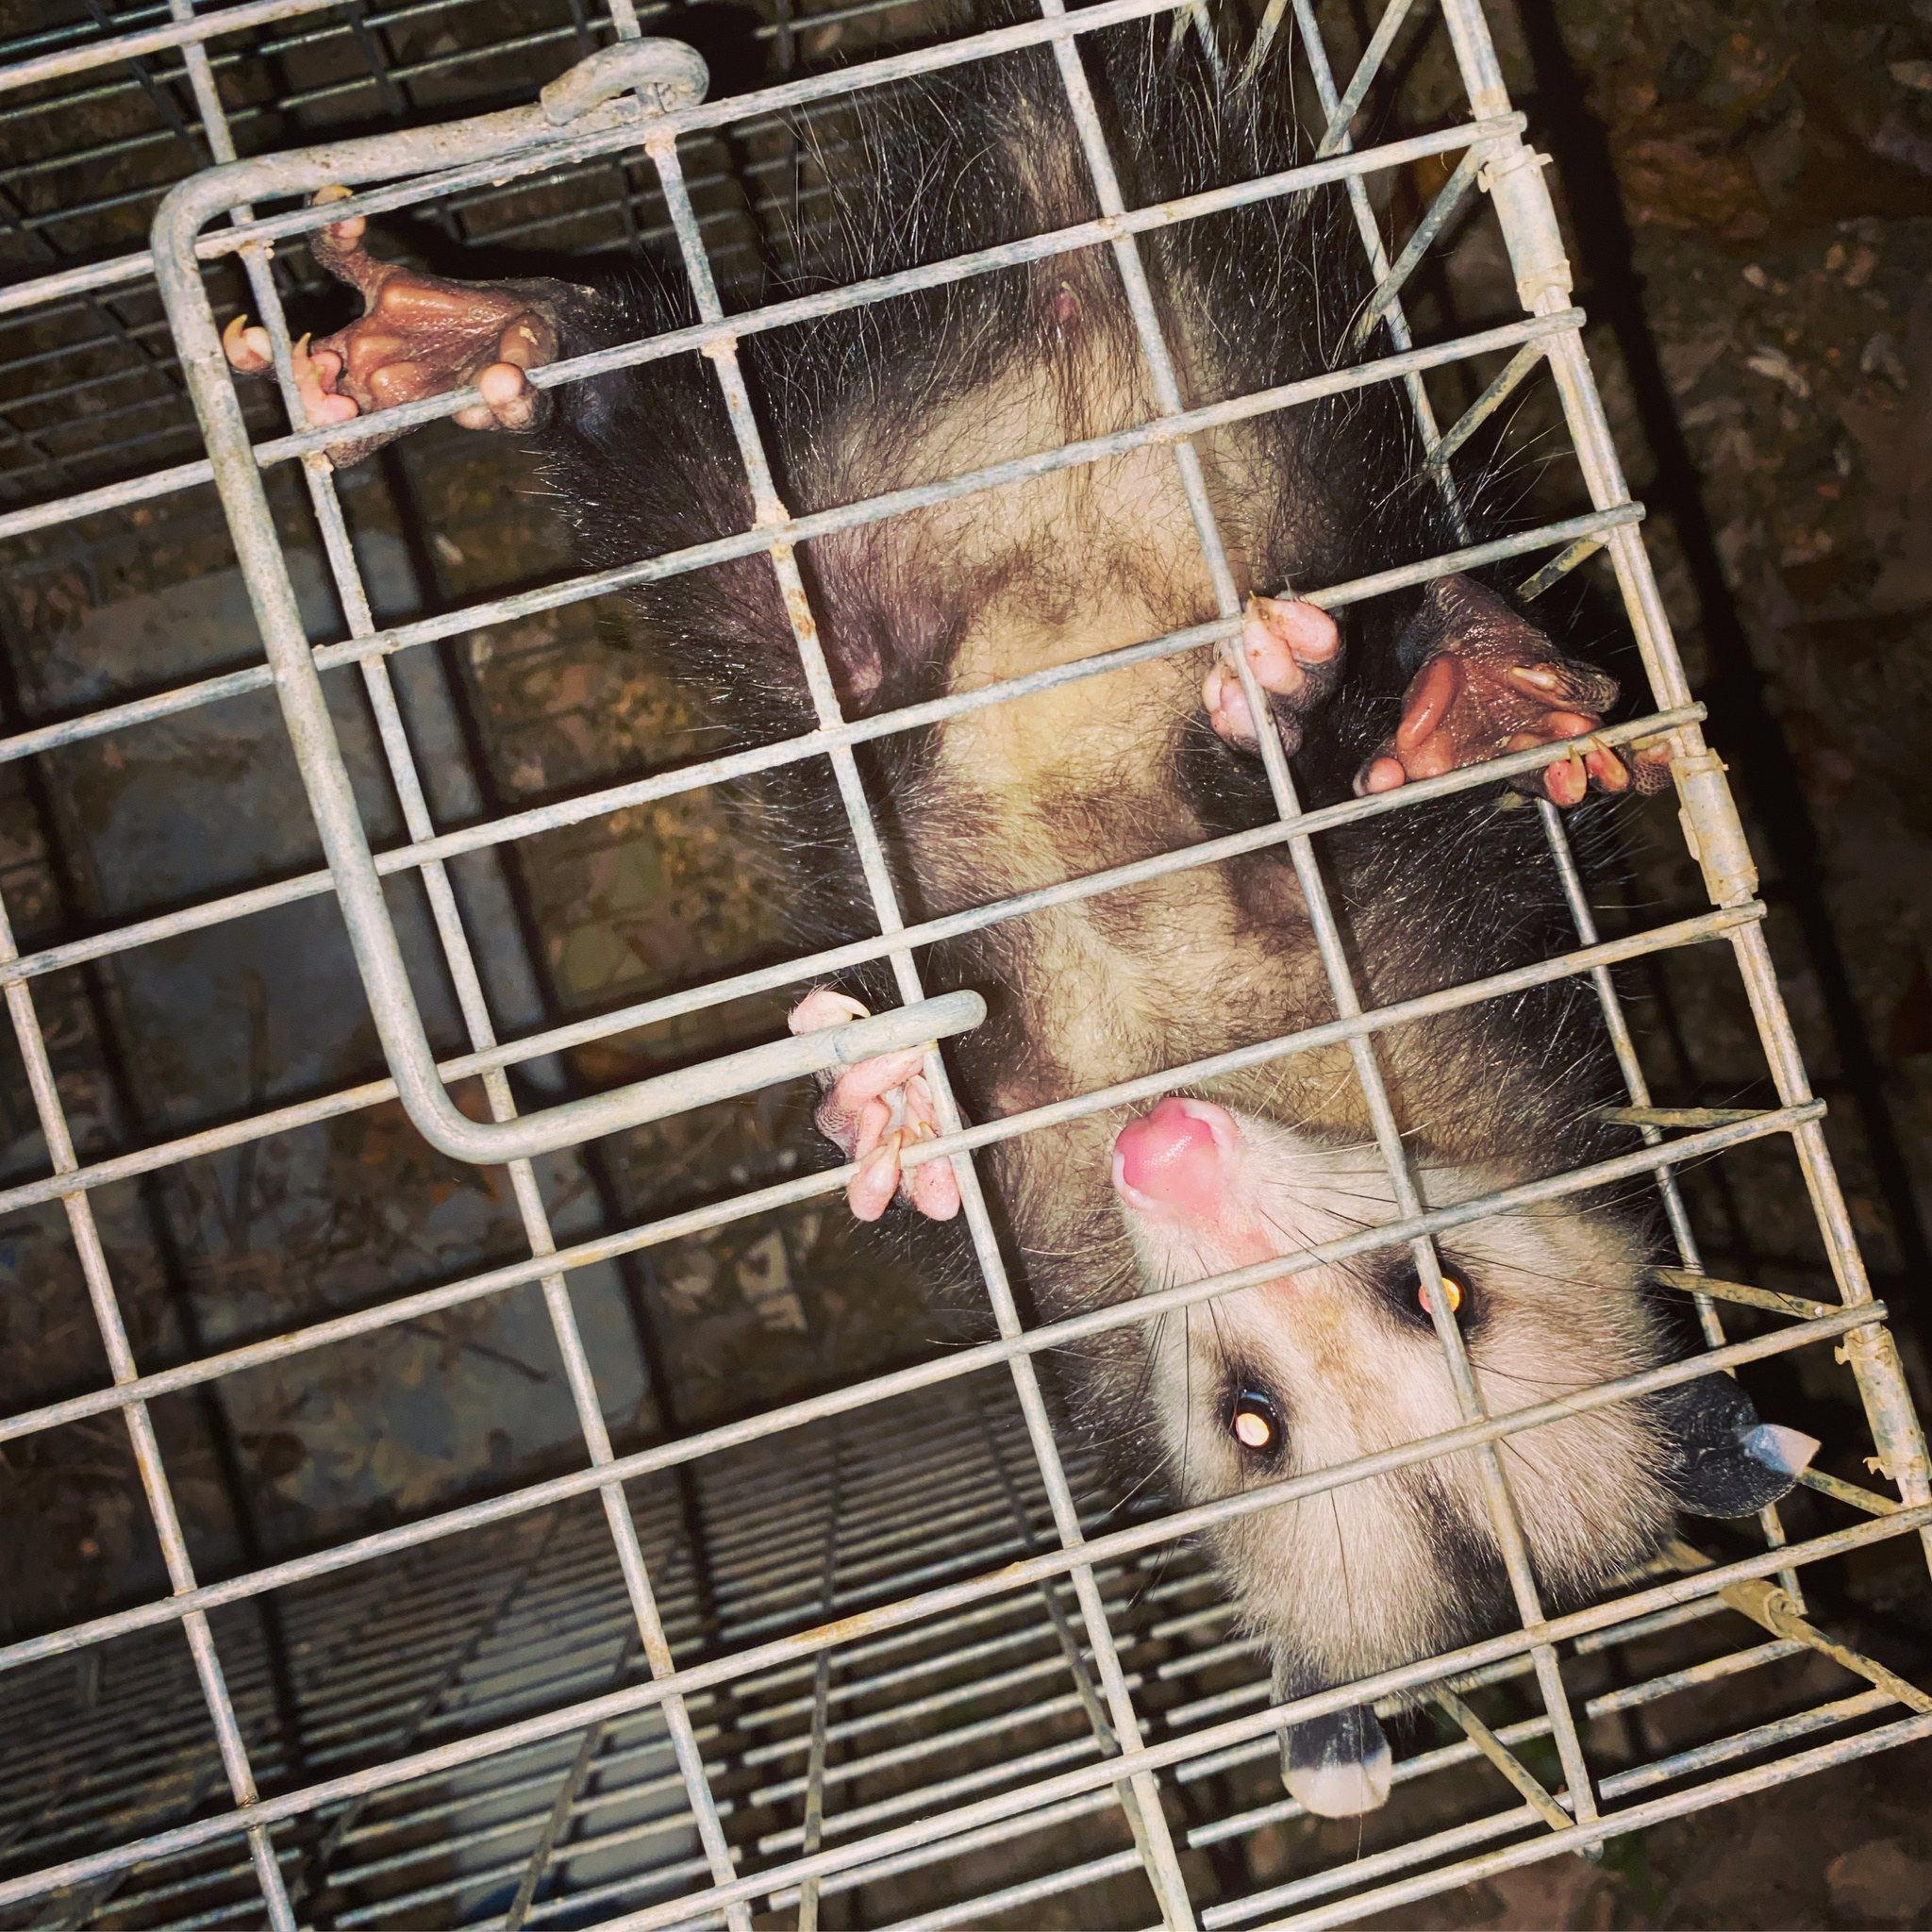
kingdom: Animalia
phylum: Chordata
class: Mammalia
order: Didelphimorphia
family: Didelphidae
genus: Didelphis
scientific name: Didelphis virginiana
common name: Virginia opossum
